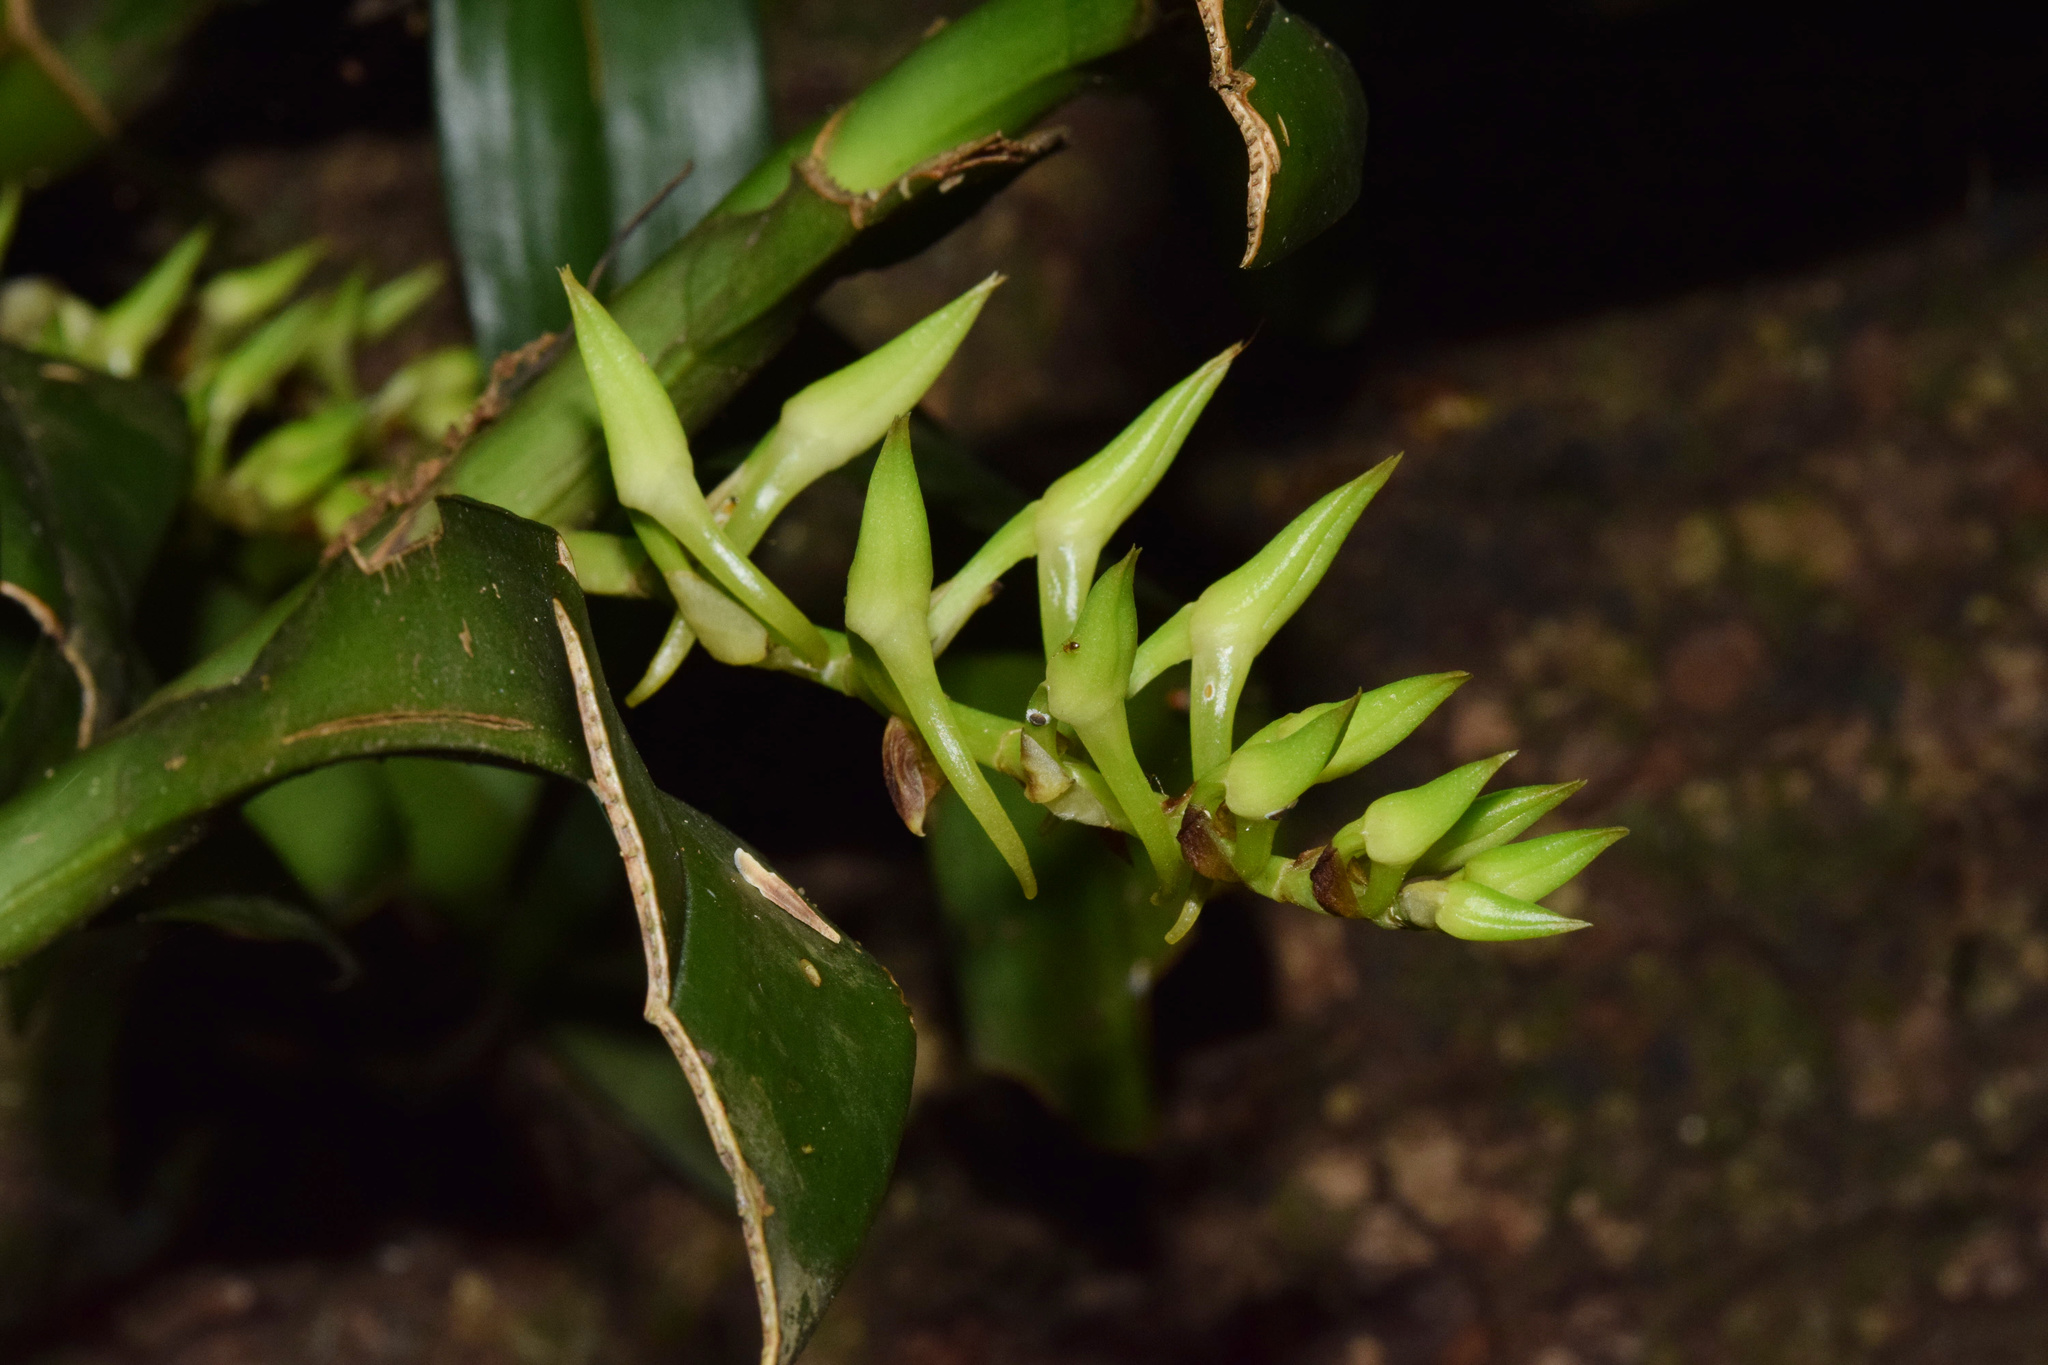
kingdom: Plantae
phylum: Tracheophyta
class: Liliopsida
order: Asparagales
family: Orchidaceae
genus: Cyrtorchis
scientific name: Cyrtorchis arcuata
